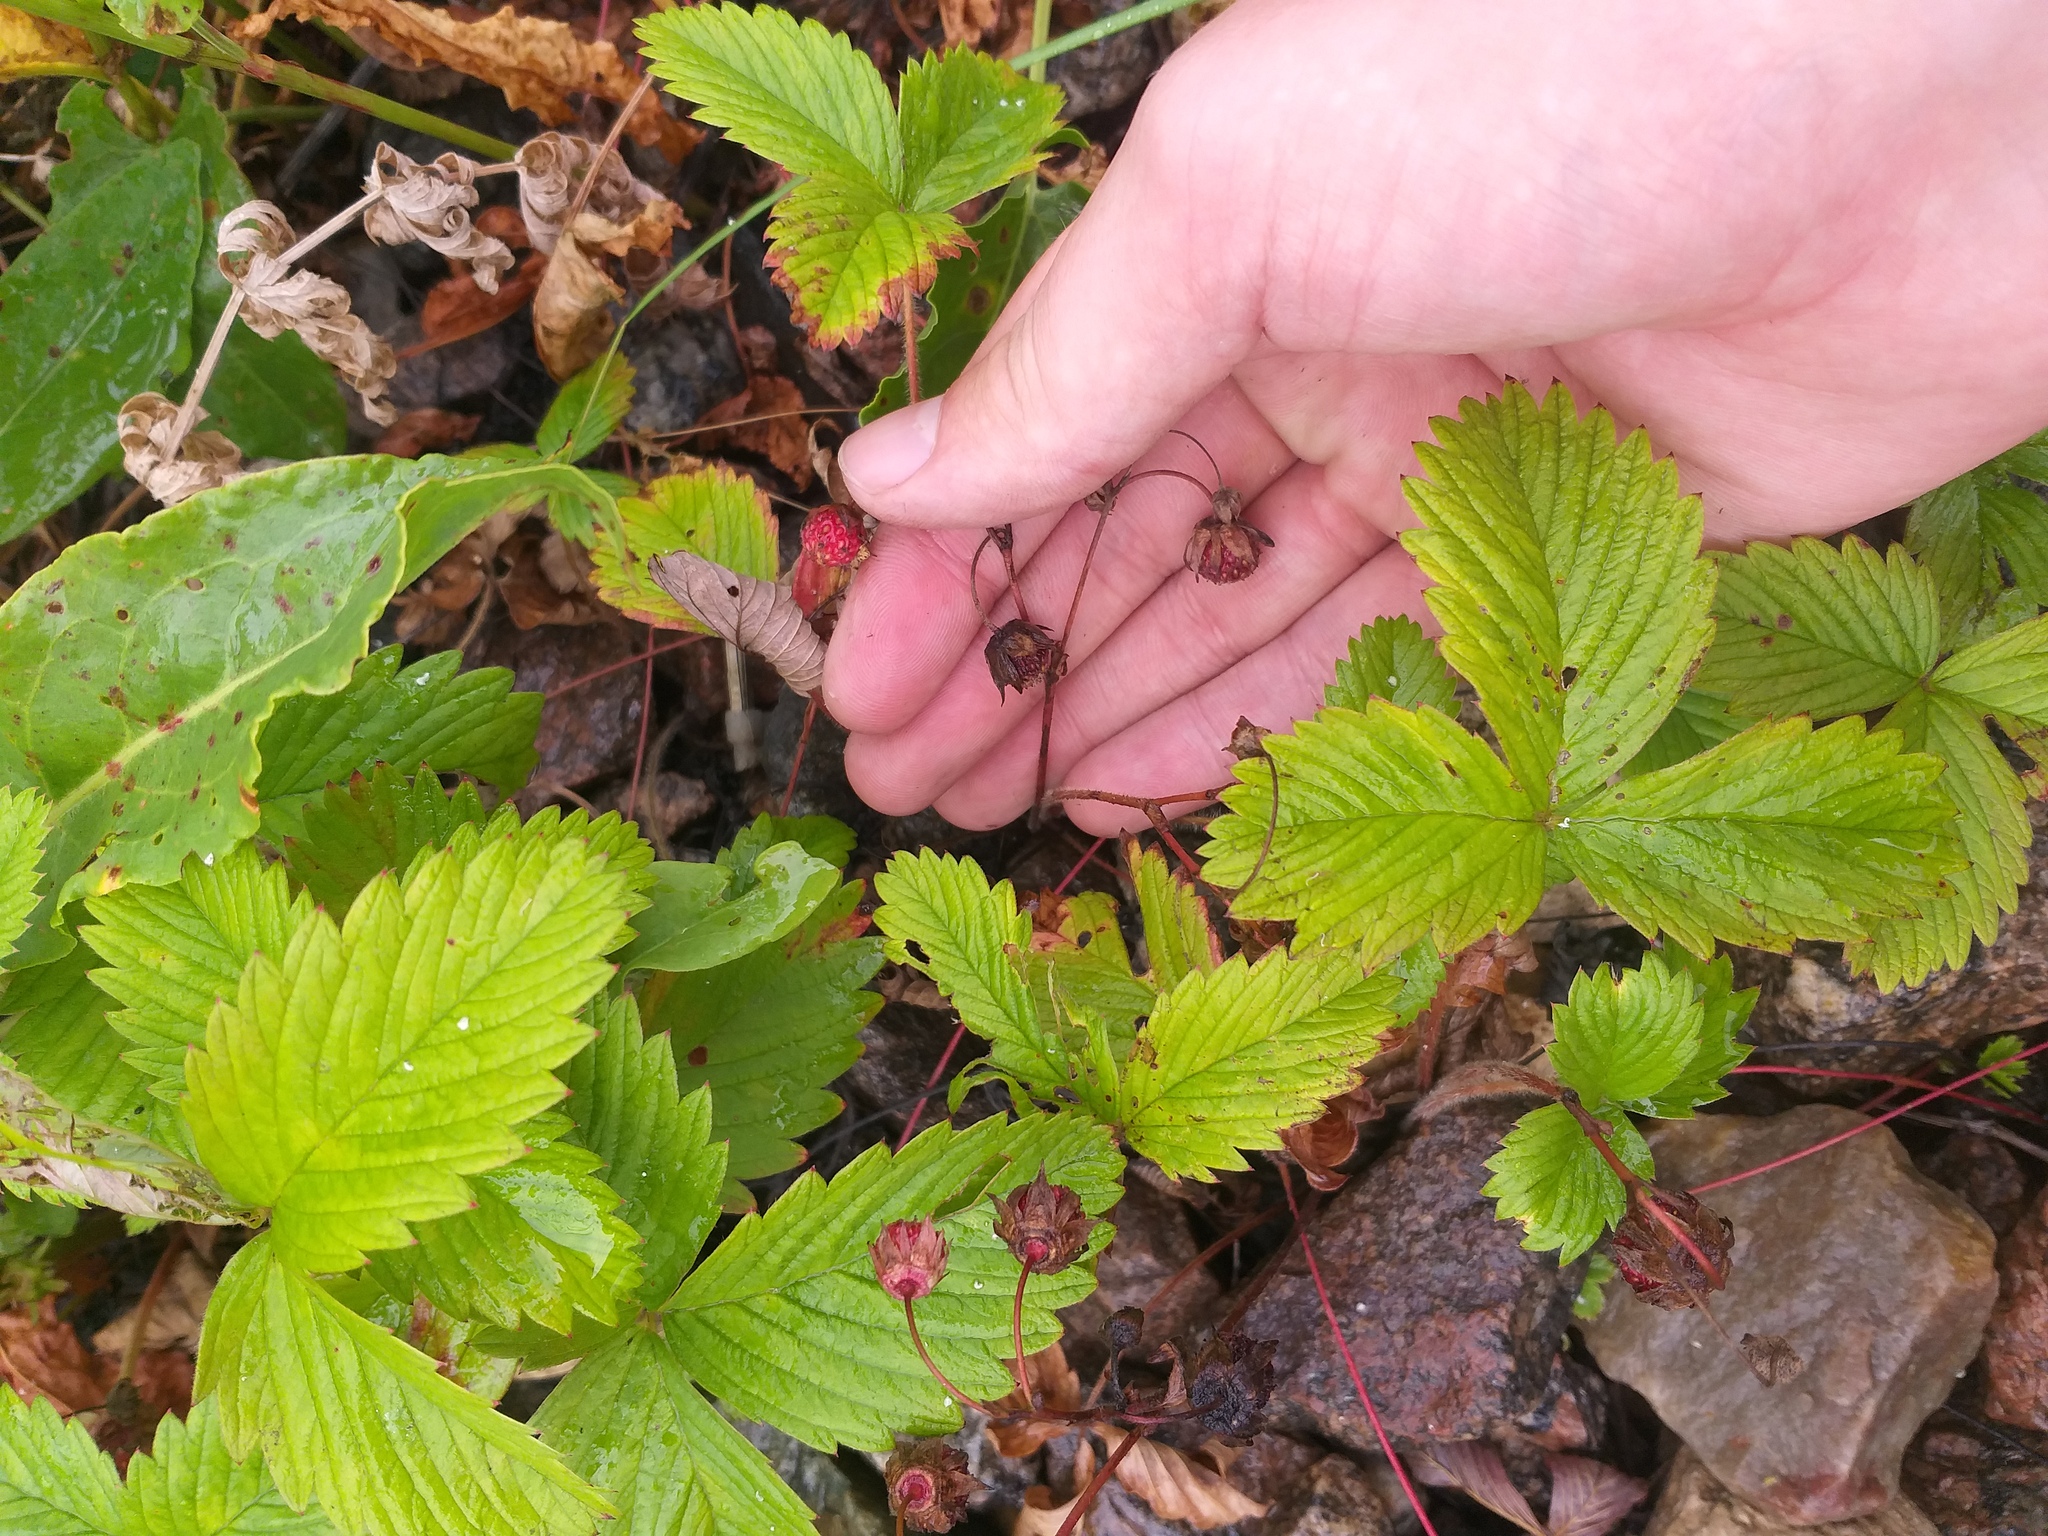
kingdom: Plantae
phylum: Tracheophyta
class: Magnoliopsida
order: Rosales
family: Rosaceae
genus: Fragaria
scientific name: Fragaria viridis
